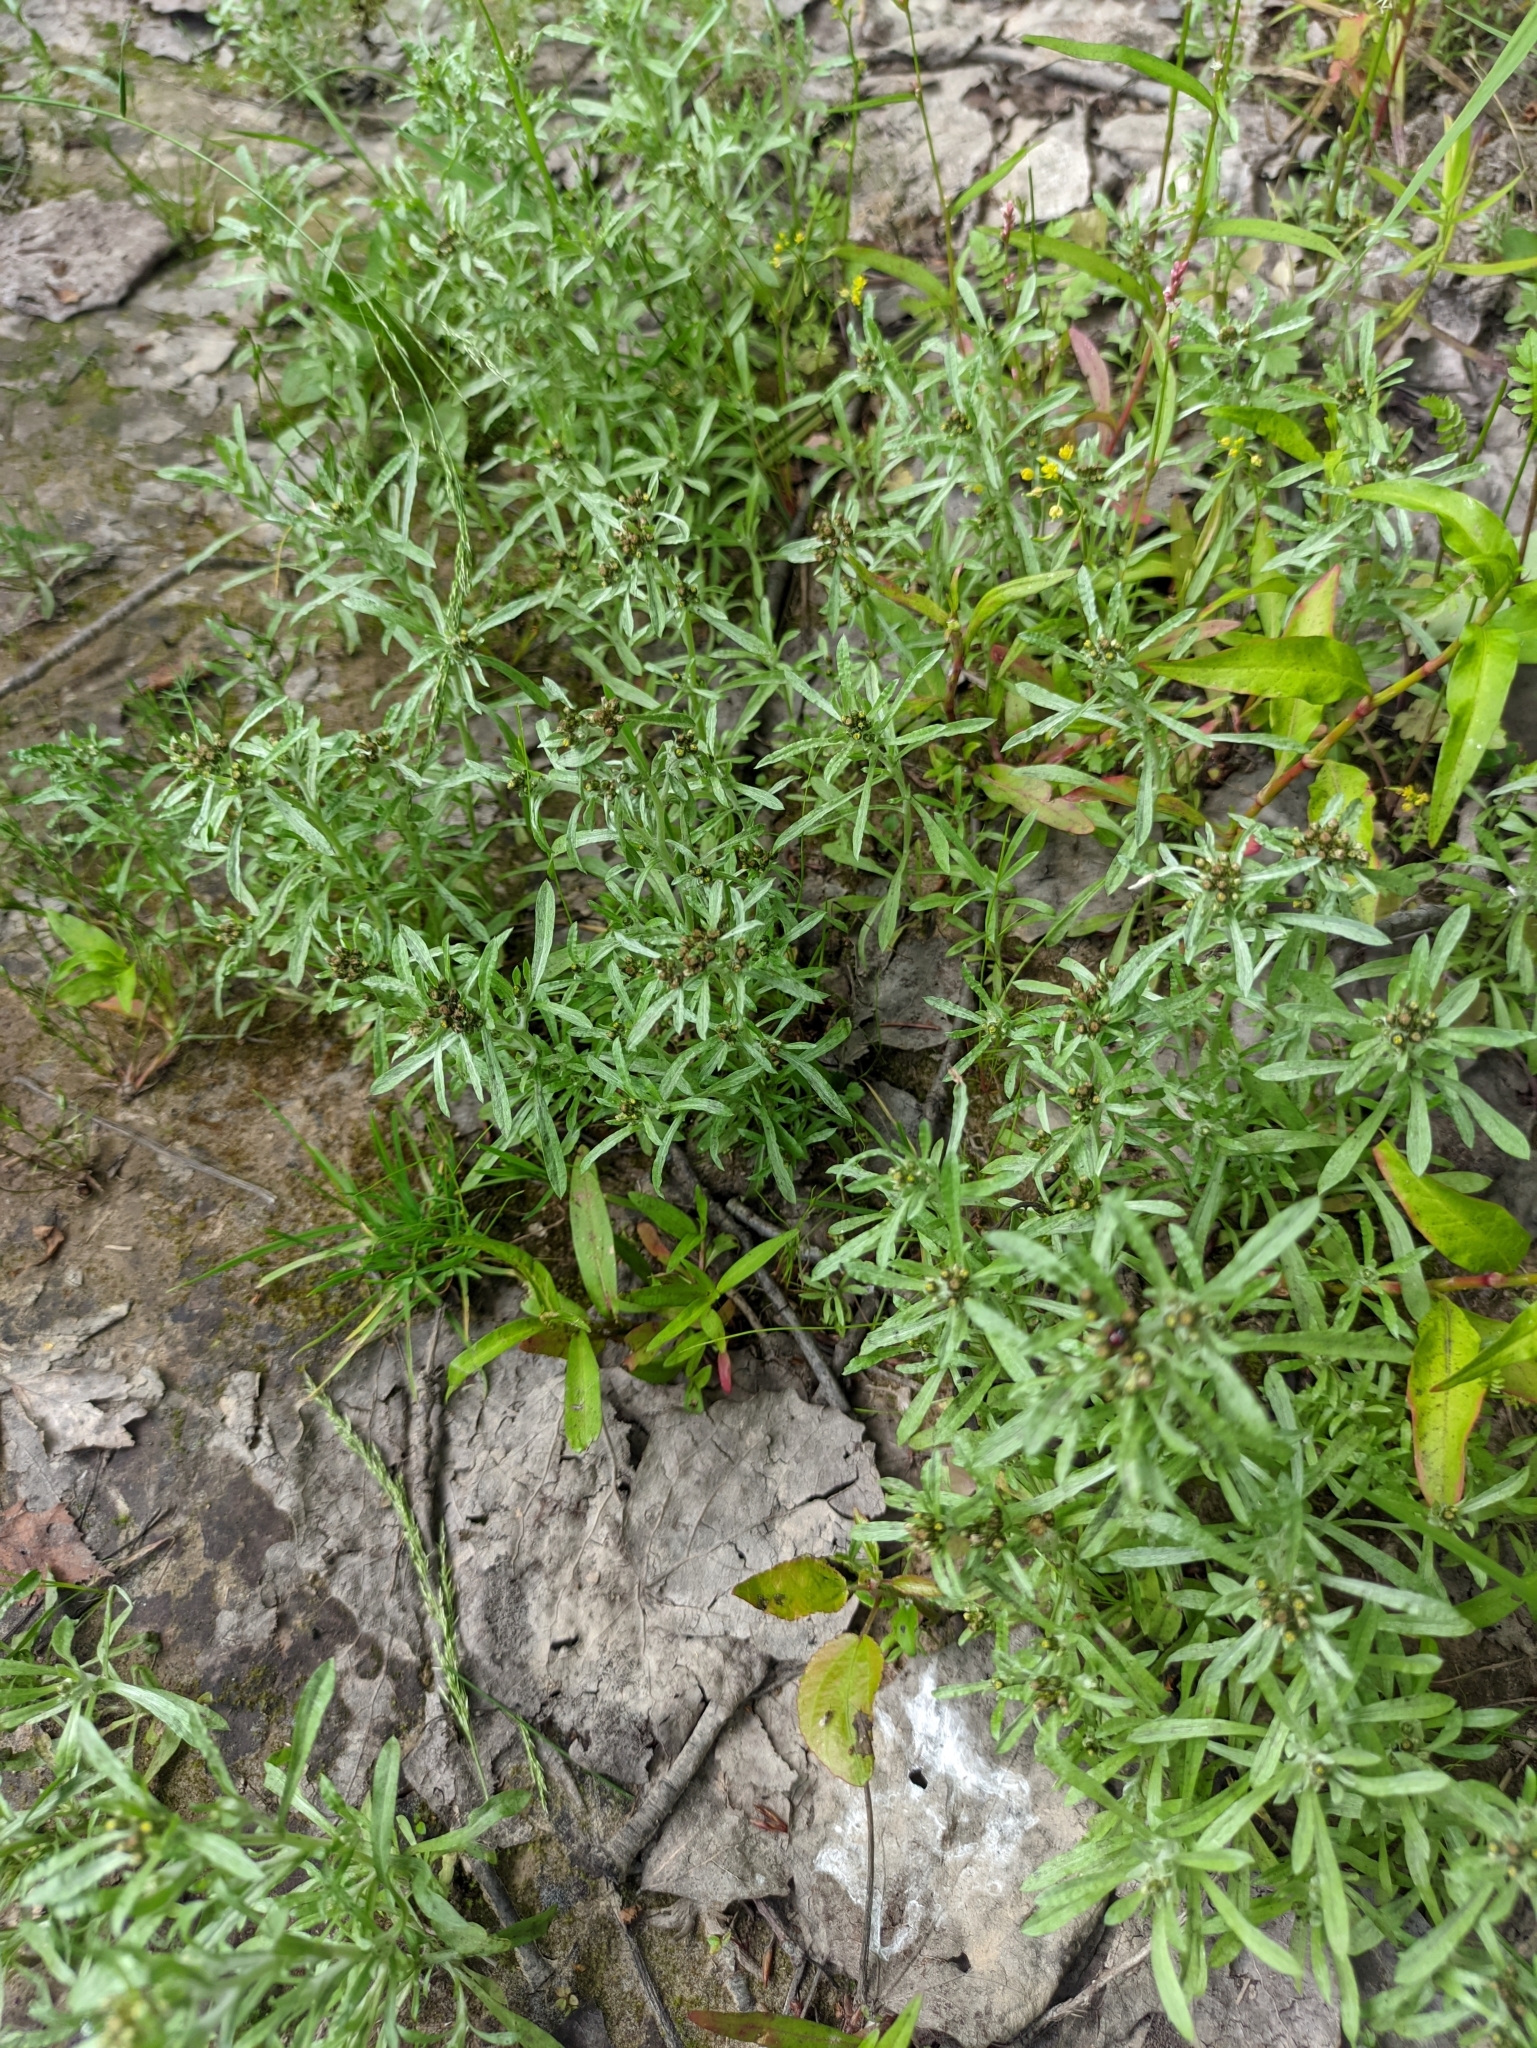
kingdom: Plantae
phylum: Tracheophyta
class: Magnoliopsida
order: Asterales
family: Asteraceae
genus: Gnaphalium
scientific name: Gnaphalium uliginosum
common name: Marsh cudweed
